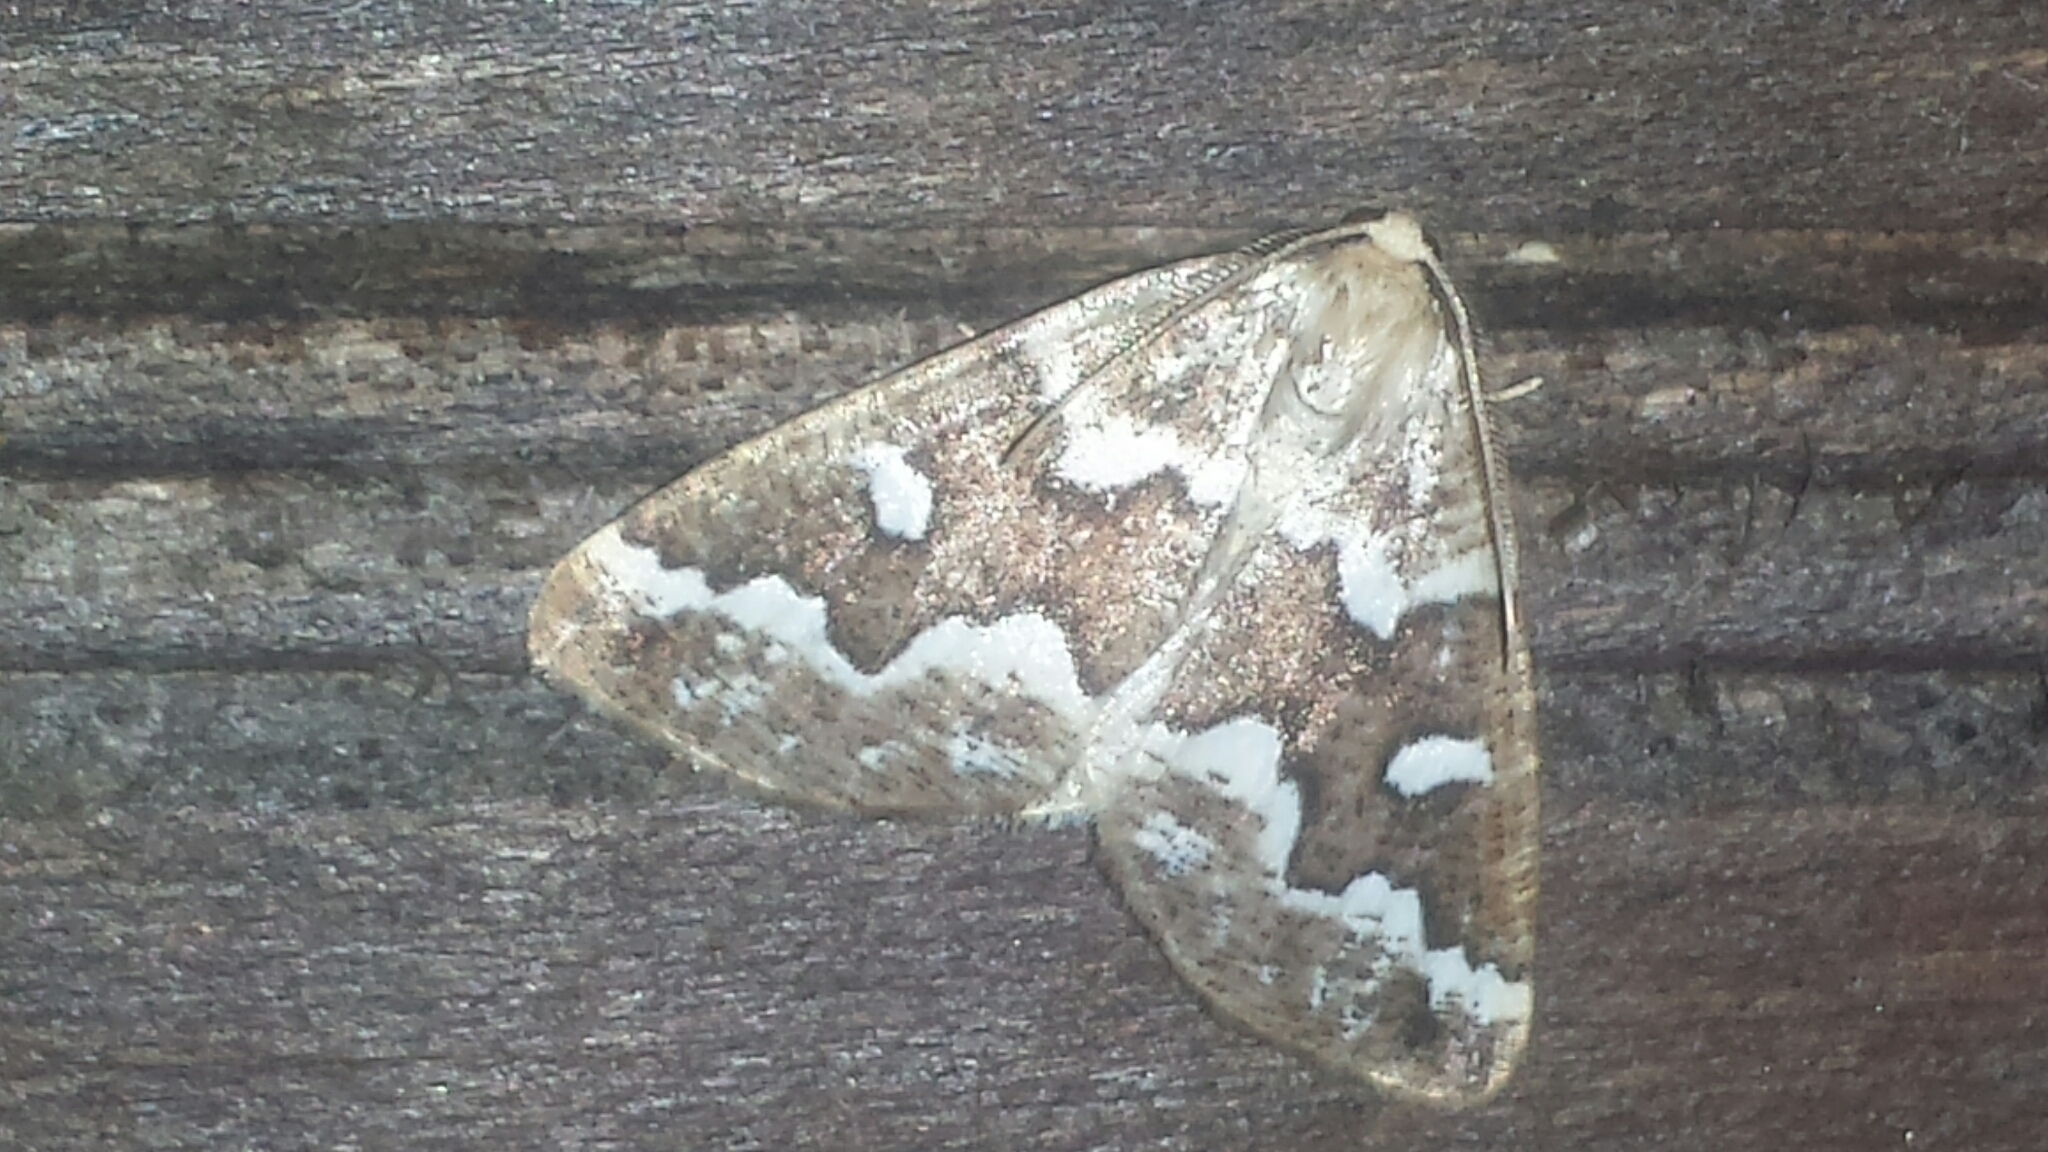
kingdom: Animalia
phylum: Arthropoda
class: Insecta
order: Lepidoptera
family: Geometridae
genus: Caripeta
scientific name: Caripeta divisata
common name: Gray spruce looper
